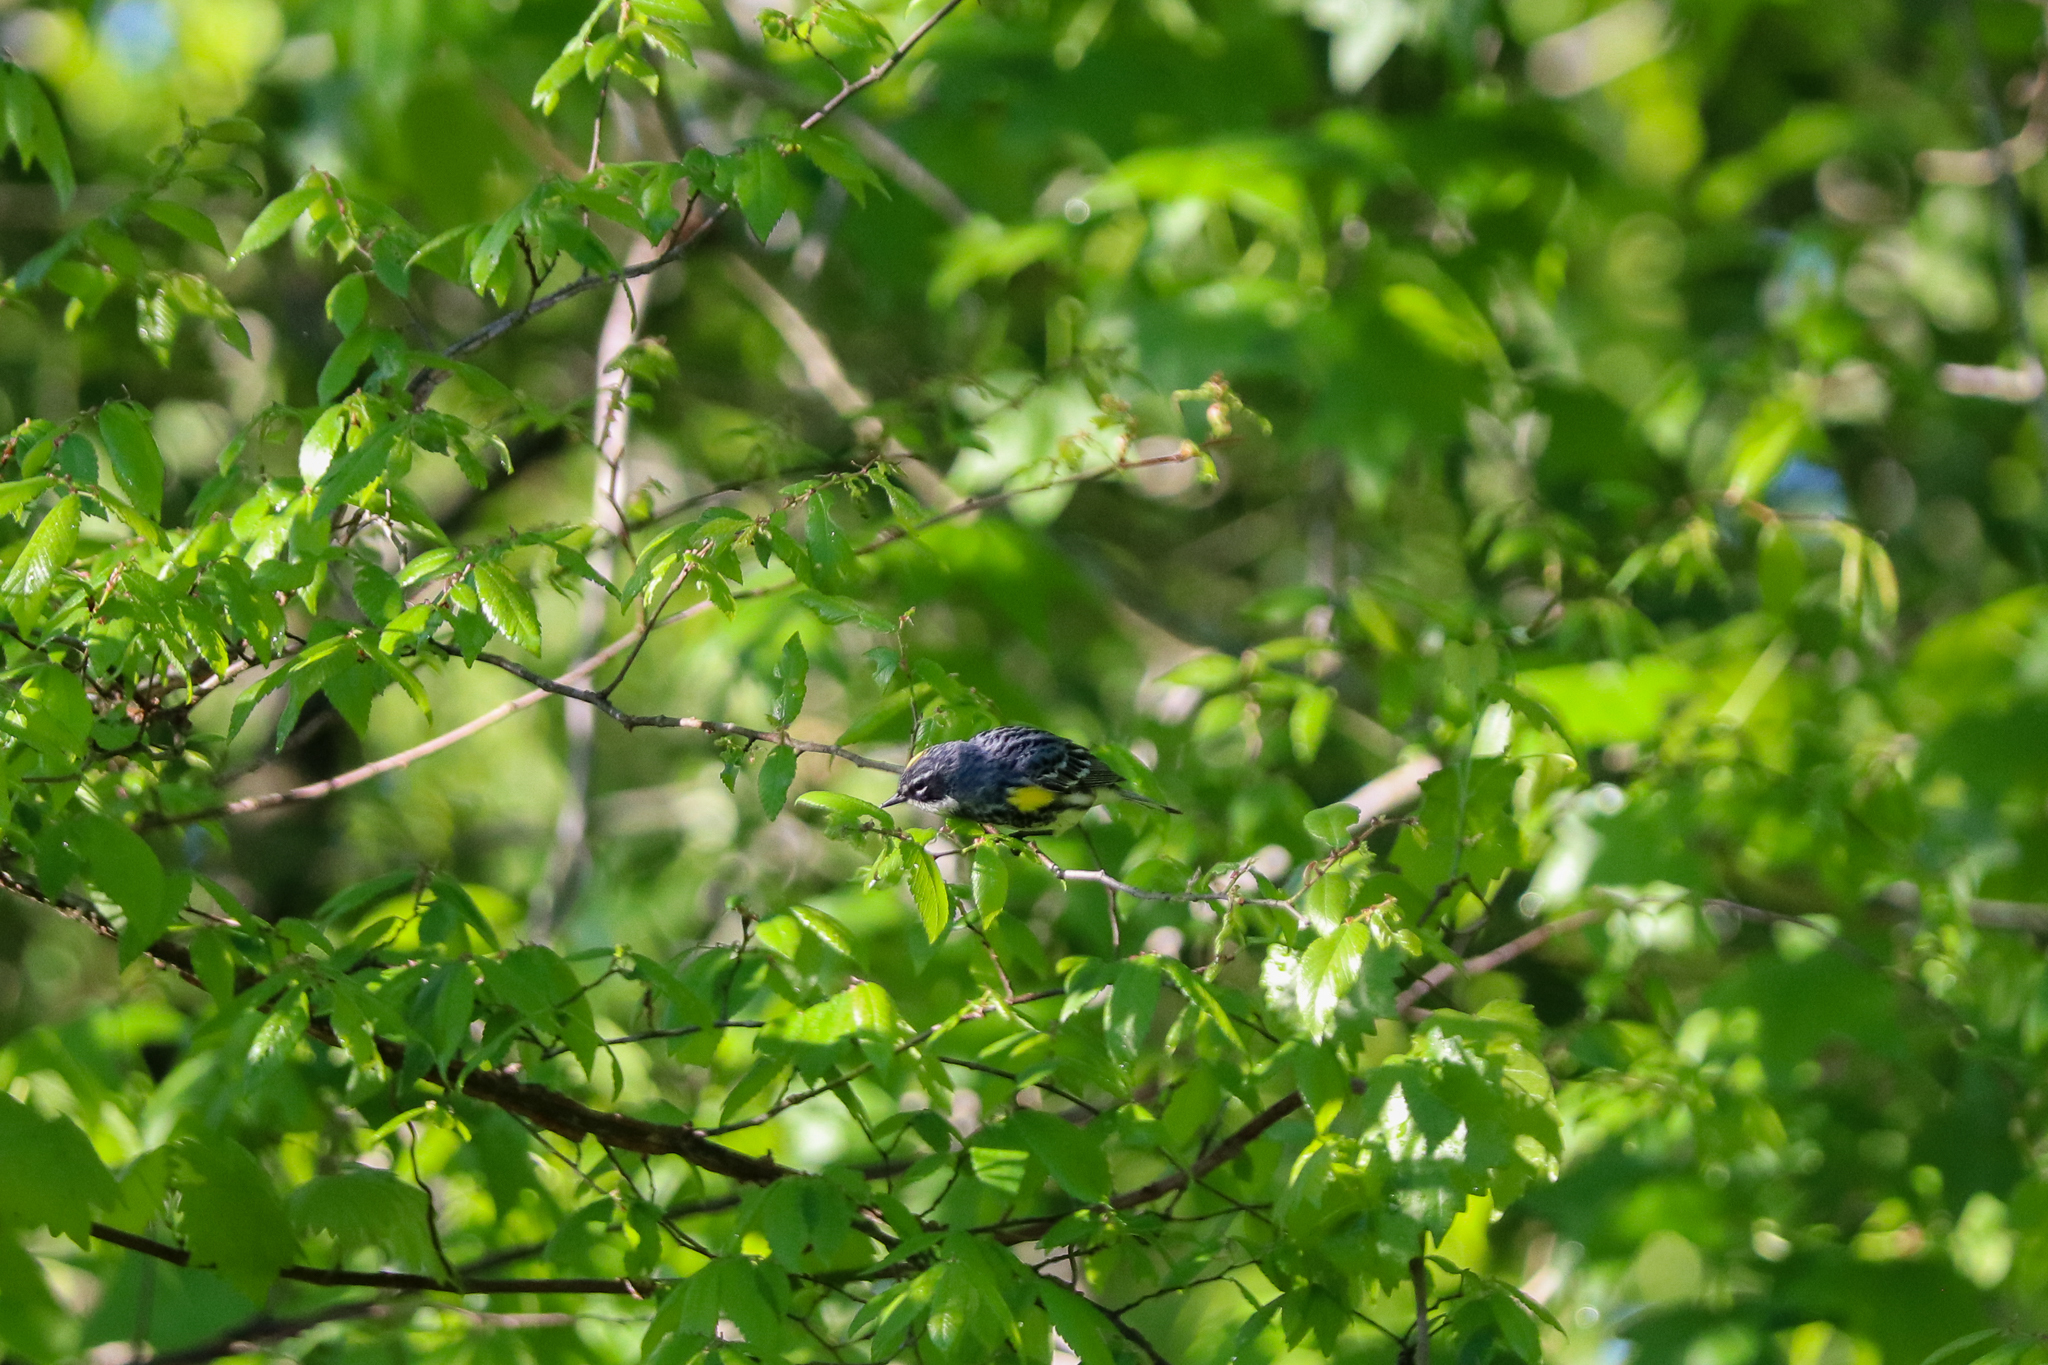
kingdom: Animalia
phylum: Chordata
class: Aves
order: Passeriformes
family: Parulidae
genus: Setophaga
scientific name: Setophaga coronata
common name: Myrtle warbler
